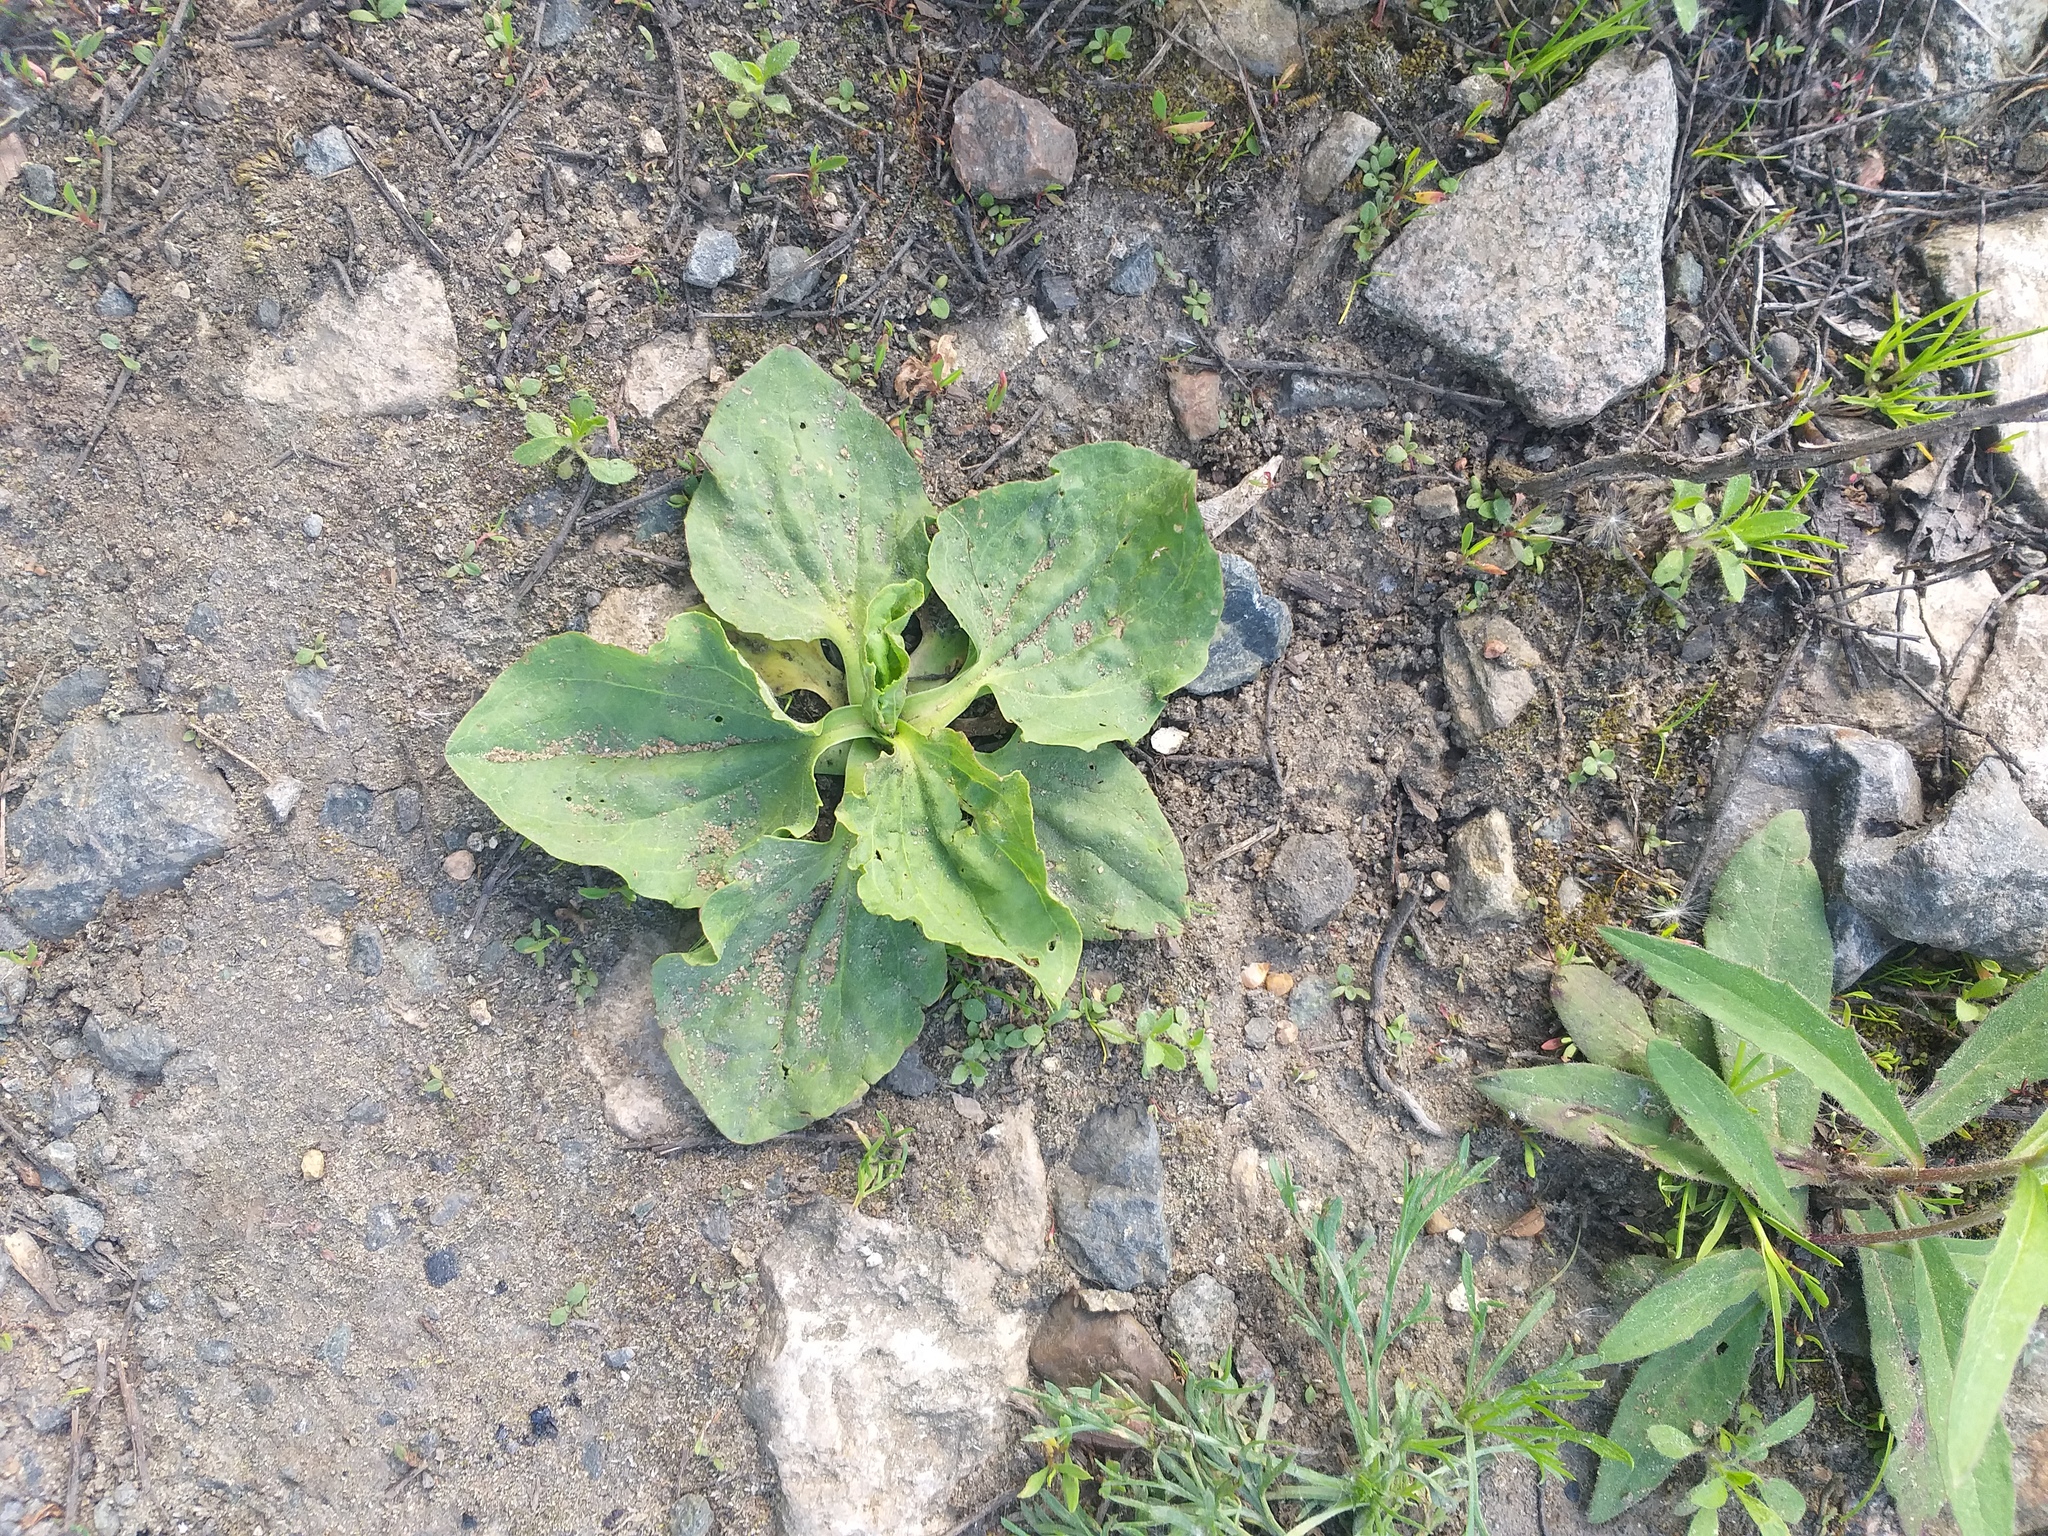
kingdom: Plantae
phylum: Tracheophyta
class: Magnoliopsida
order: Lamiales
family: Plantaginaceae
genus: Plantago
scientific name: Plantago major
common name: Common plantain
